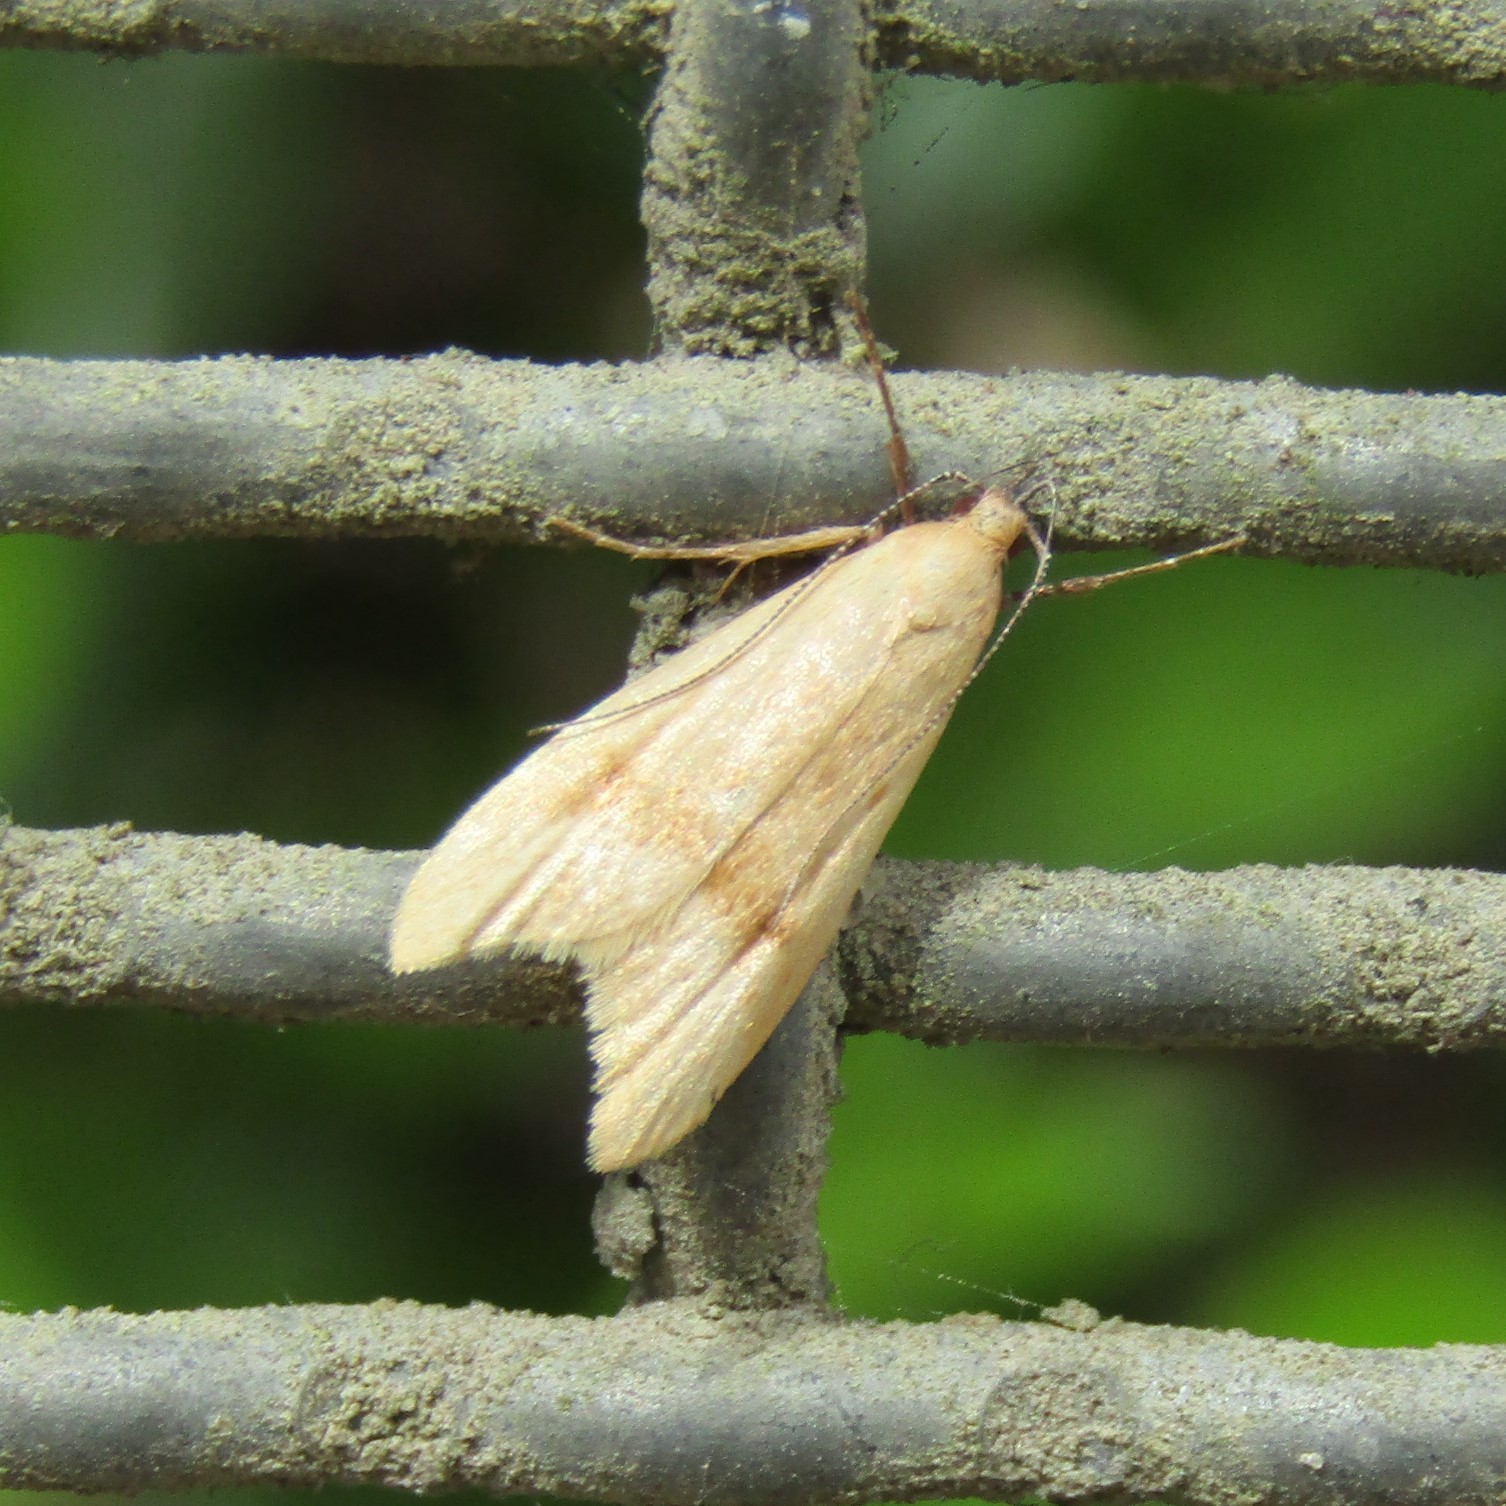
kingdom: Animalia
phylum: Arthropoda
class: Insecta
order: Lepidoptera
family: Oecophoridae
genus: Gymnobathra
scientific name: Gymnobathra hyetodes
